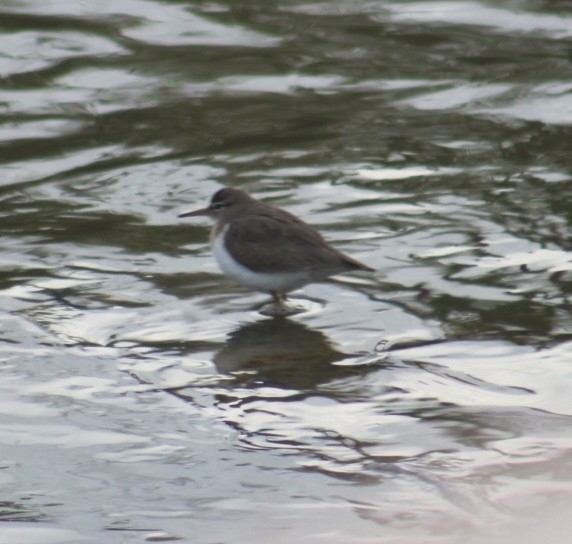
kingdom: Animalia
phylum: Chordata
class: Aves
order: Charadriiformes
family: Scolopacidae
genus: Actitis
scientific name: Actitis macularius
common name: Spotted sandpiper
